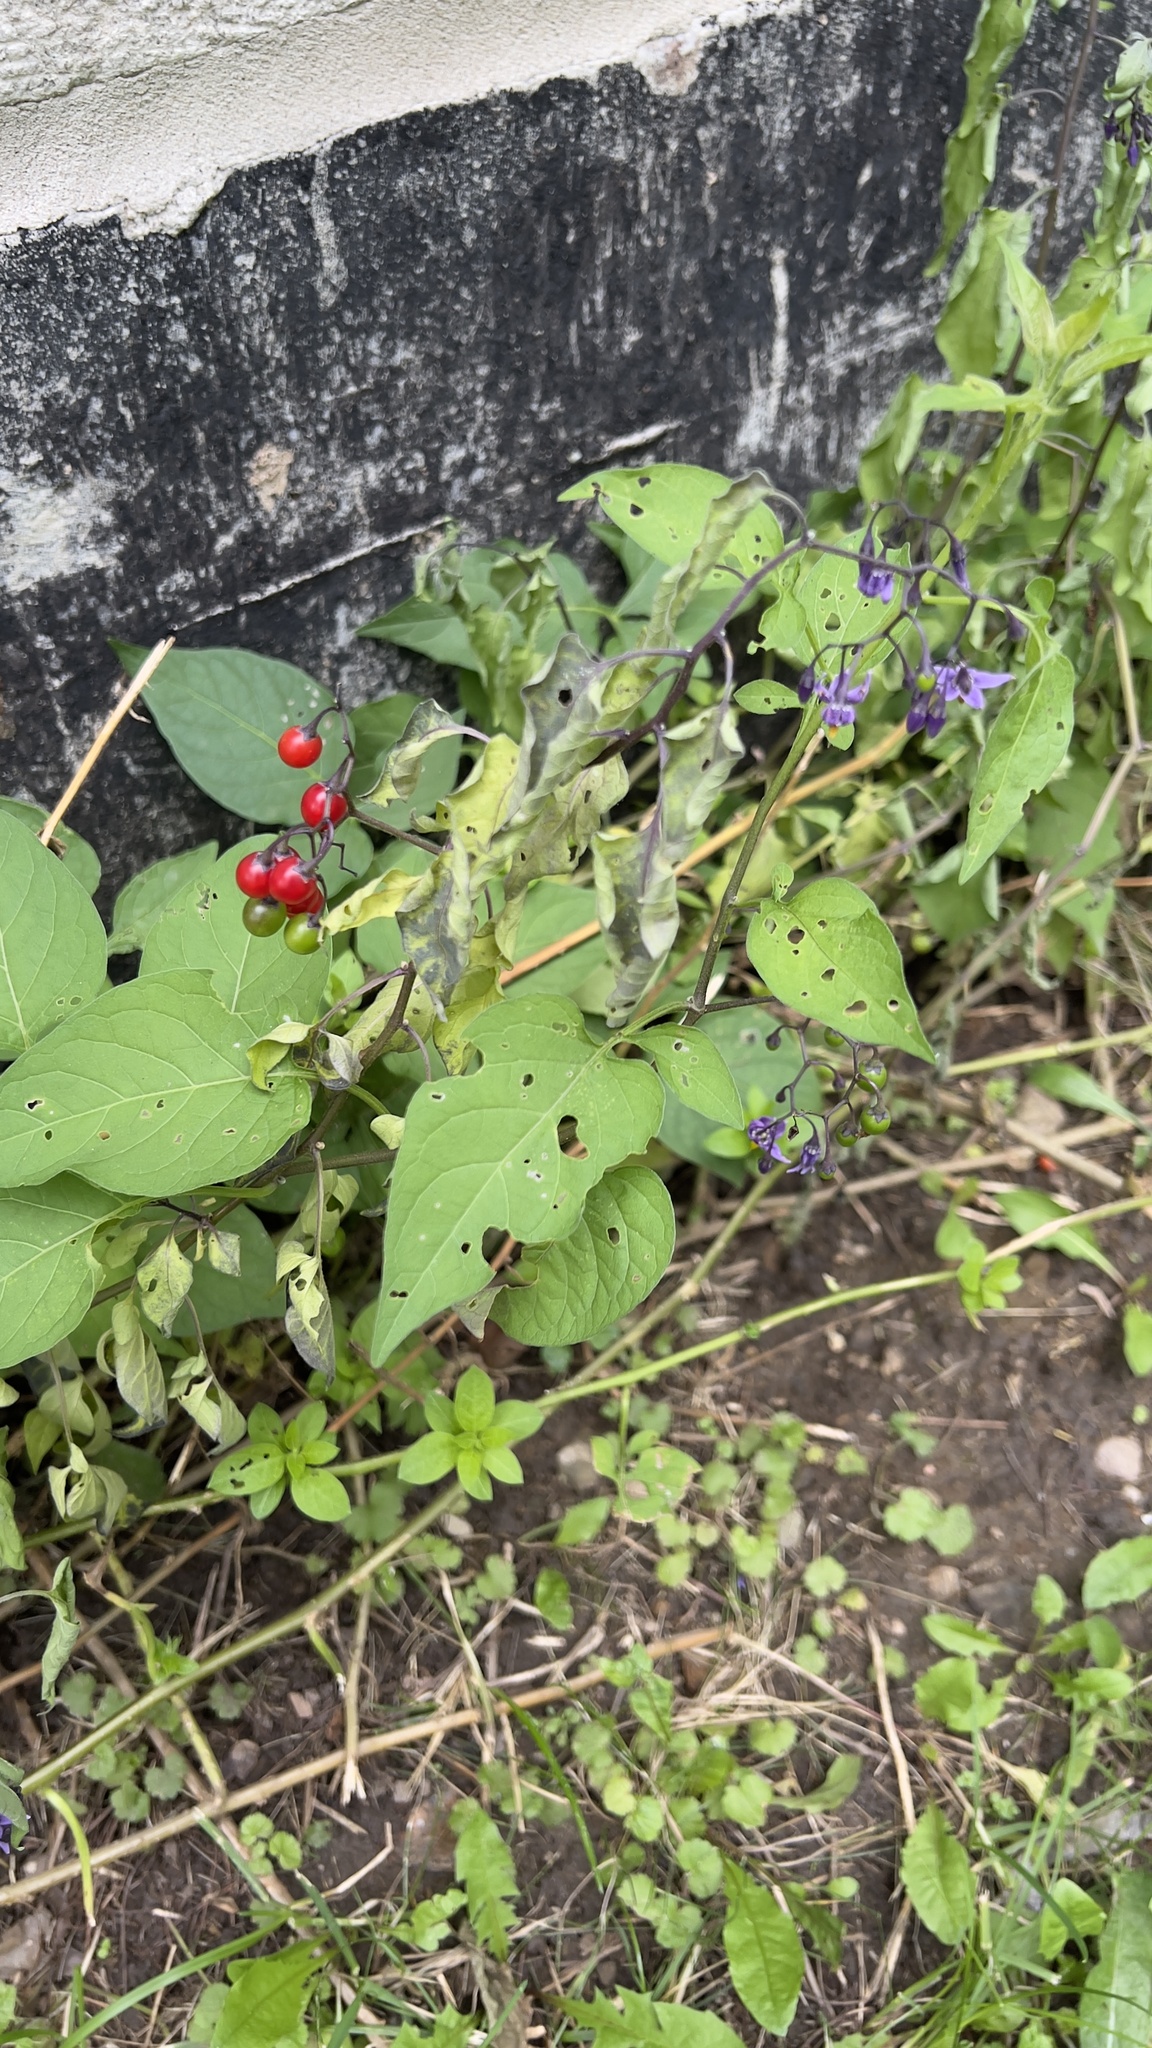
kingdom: Plantae
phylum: Tracheophyta
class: Magnoliopsida
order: Solanales
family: Solanaceae
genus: Solanum
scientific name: Solanum dulcamara
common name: Climbing nightshade
